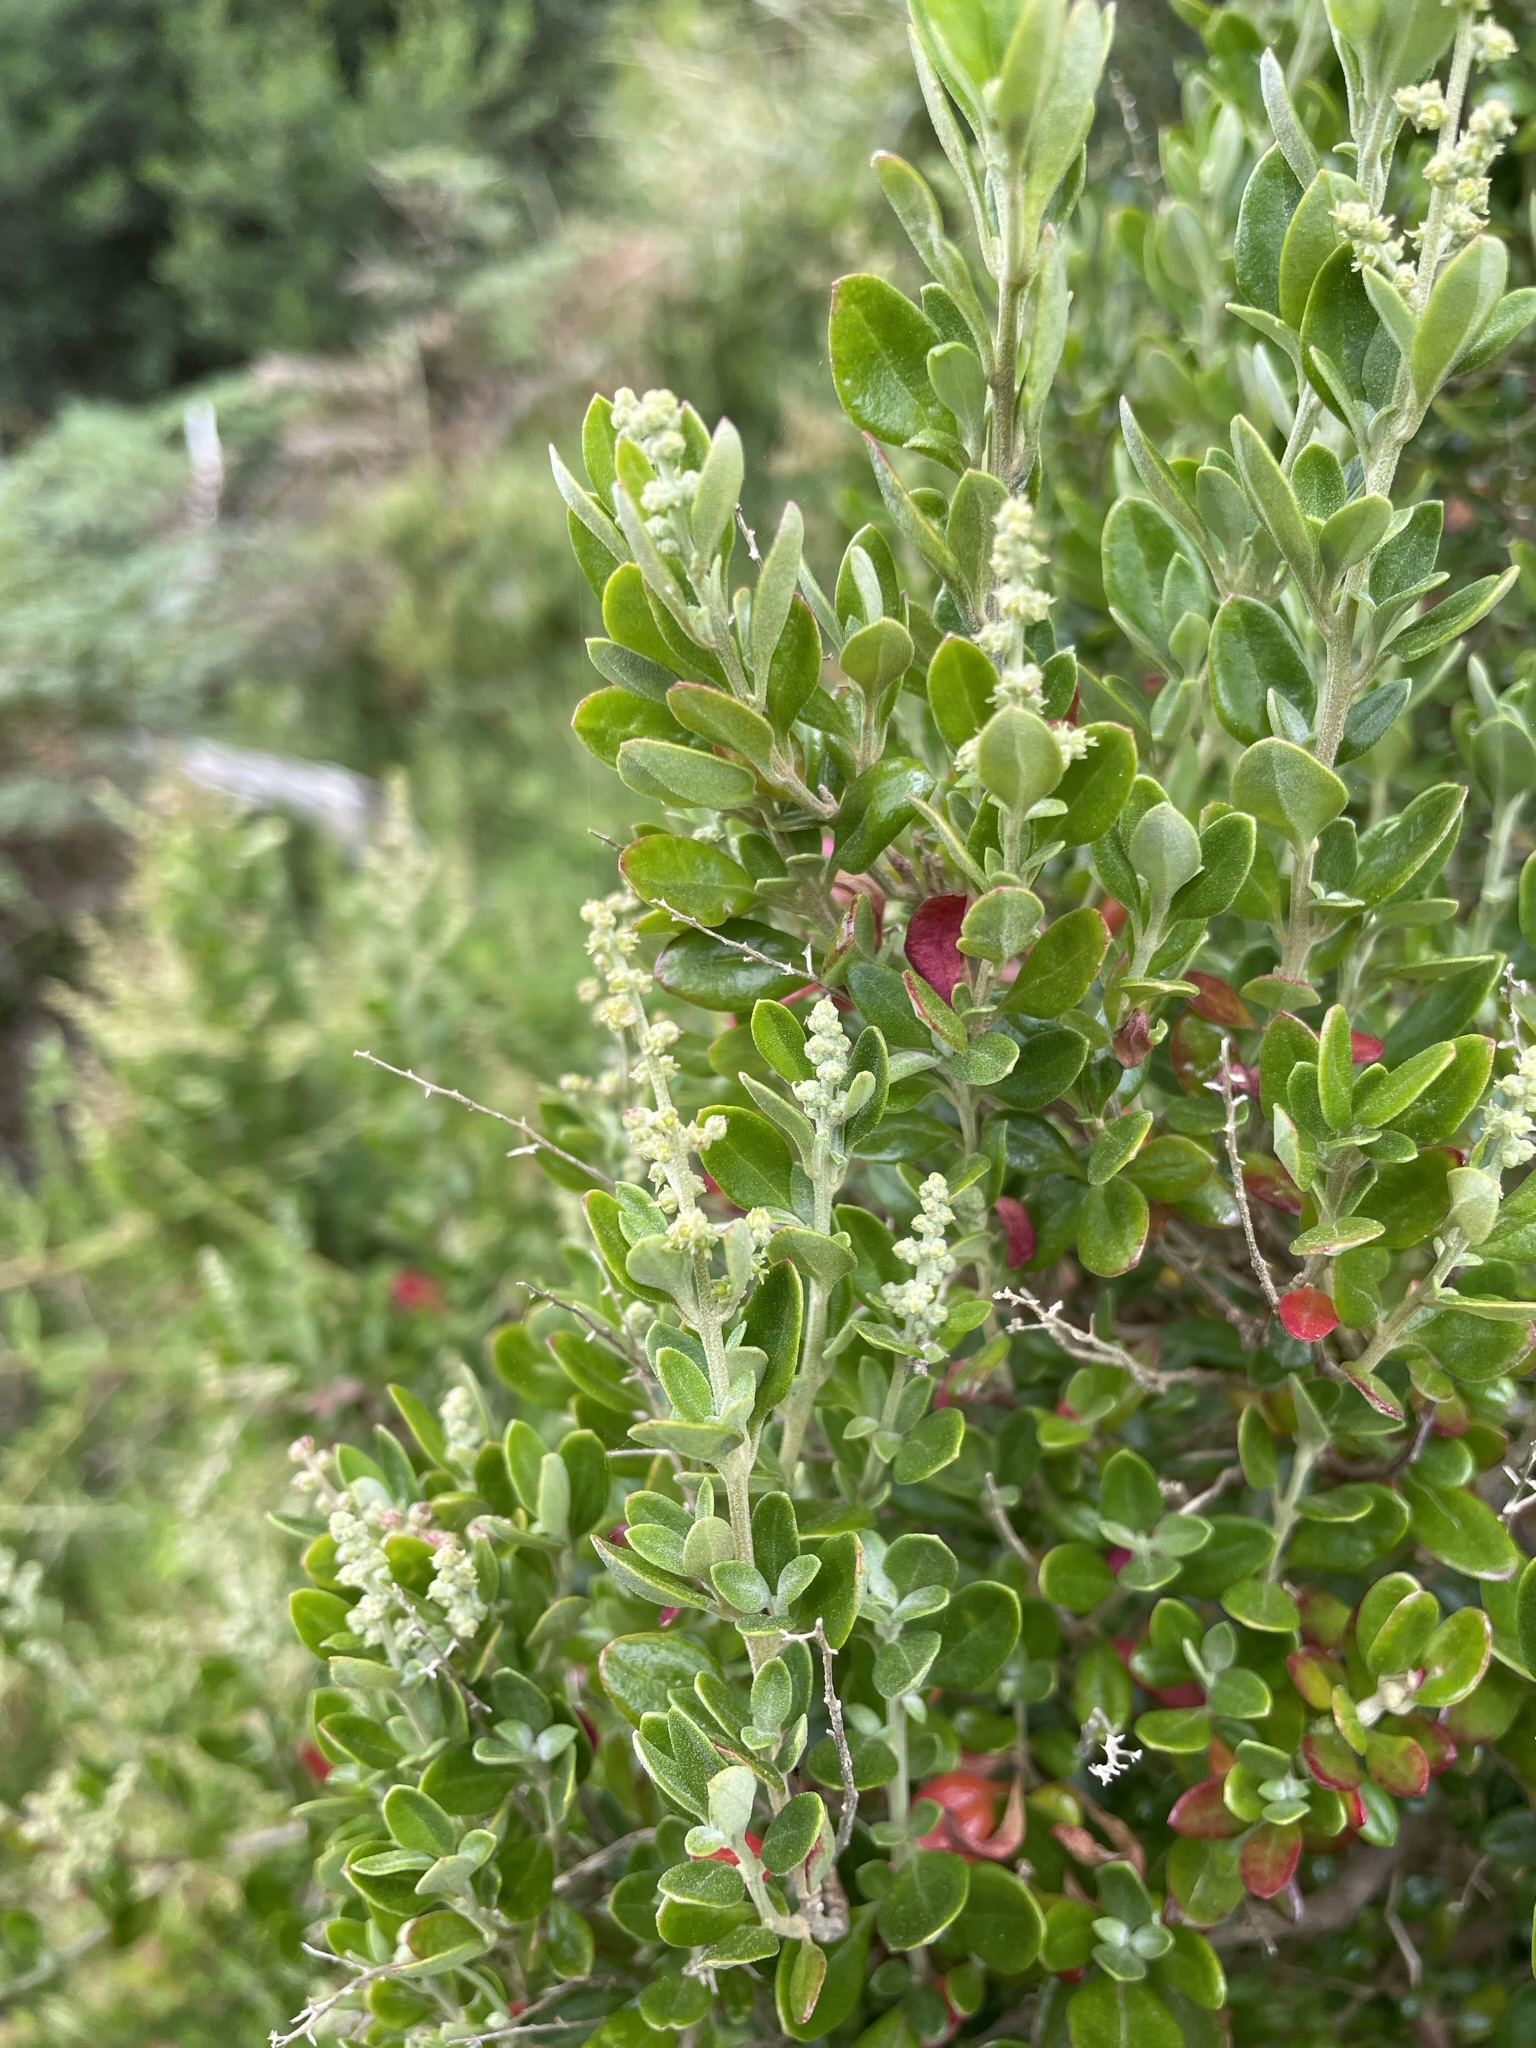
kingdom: Plantae
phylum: Tracheophyta
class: Magnoliopsida
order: Caryophyllales
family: Amaranthaceae
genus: Chenopodium
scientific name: Chenopodium candolleanum
